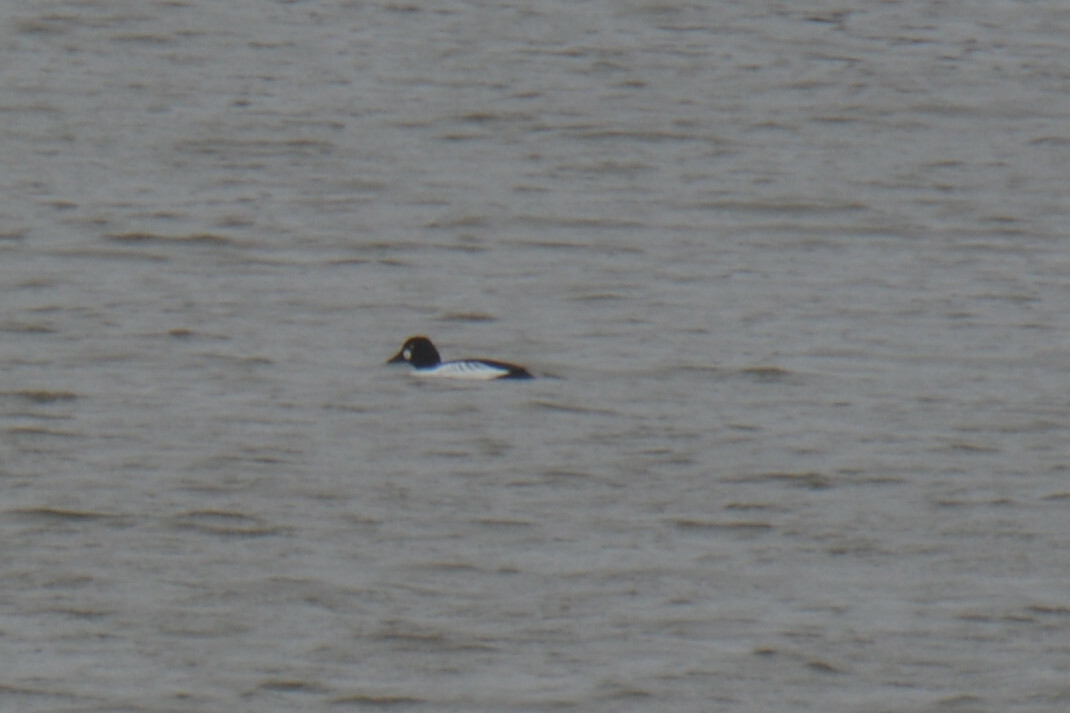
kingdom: Animalia
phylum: Chordata
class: Aves
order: Anseriformes
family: Anatidae
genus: Bucephala
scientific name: Bucephala clangula
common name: Common goldeneye
